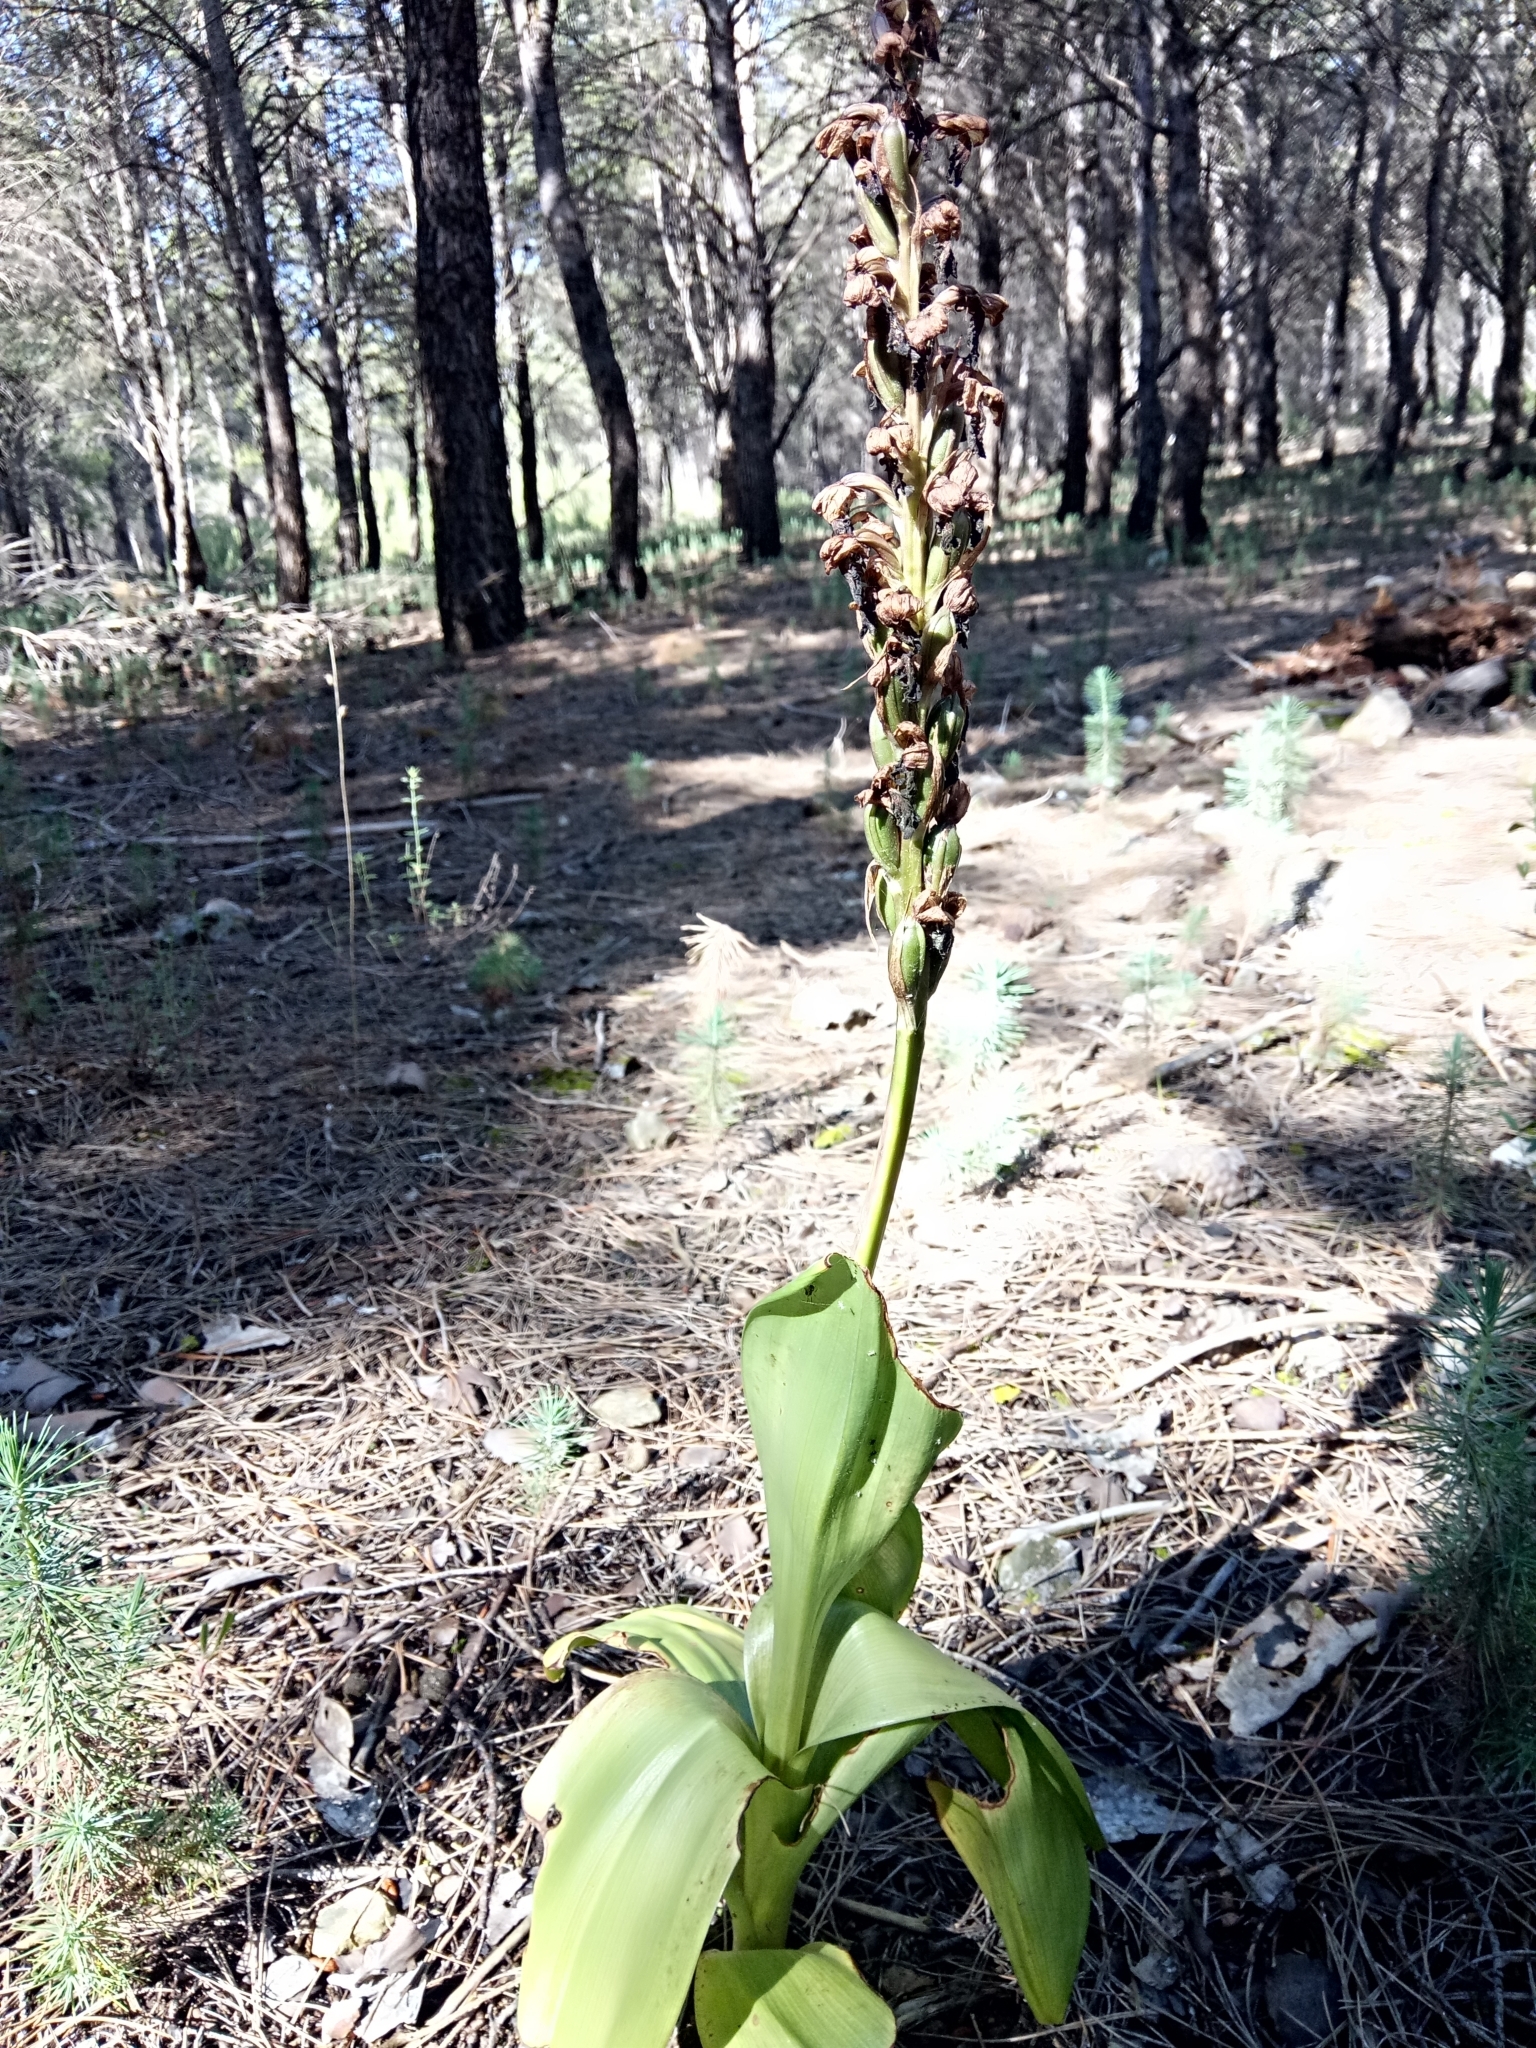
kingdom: Plantae
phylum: Tracheophyta
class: Liliopsida
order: Asparagales
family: Orchidaceae
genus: Himantoglossum
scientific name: Himantoglossum robertianum
